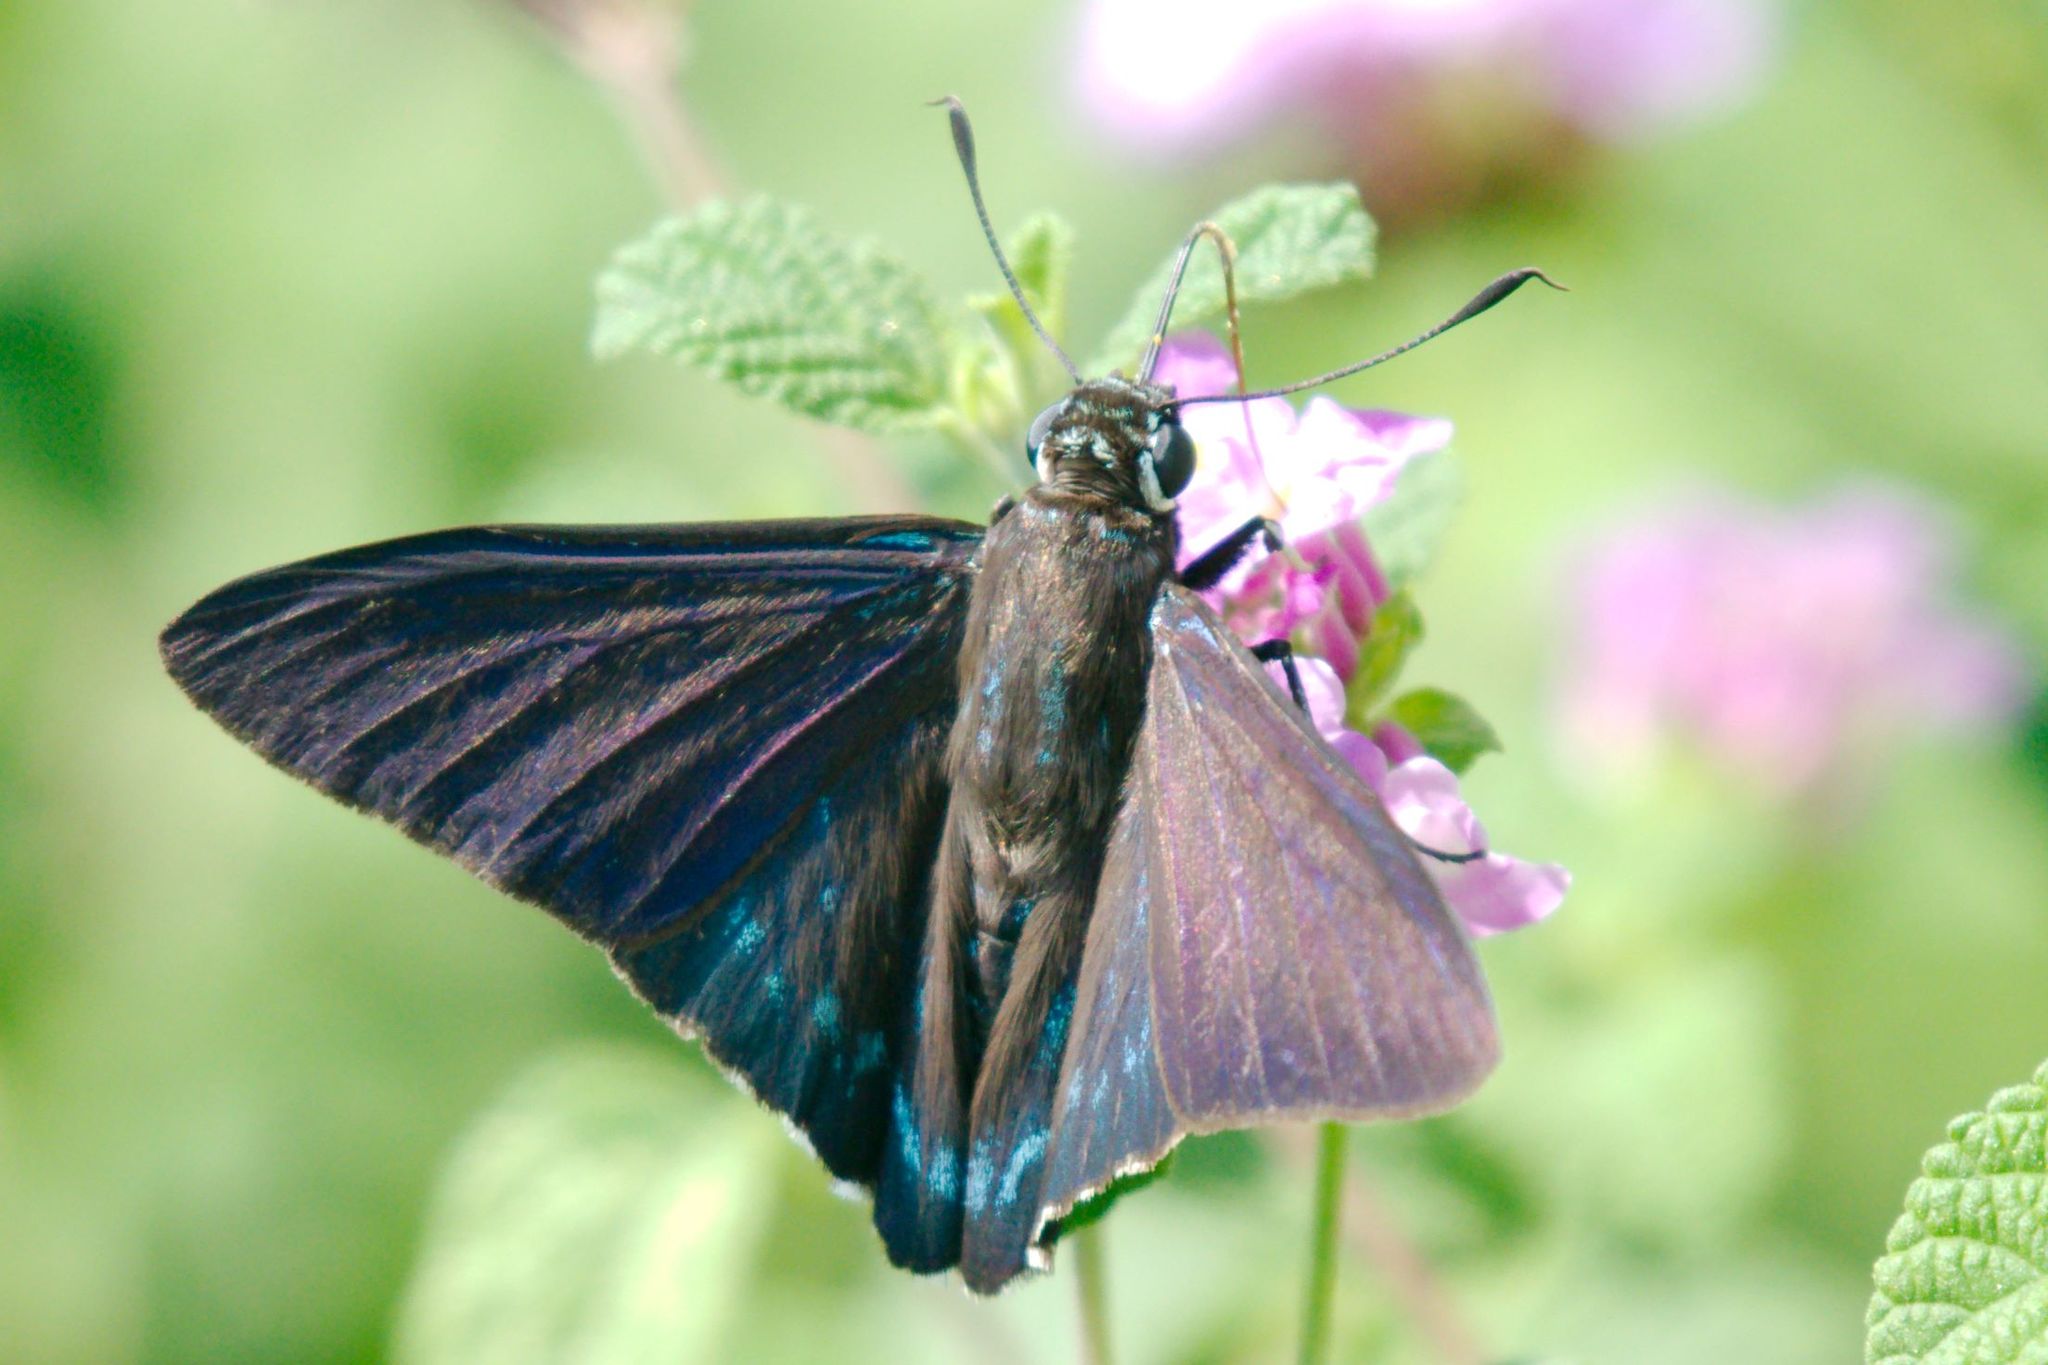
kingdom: Animalia
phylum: Arthropoda
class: Insecta
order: Lepidoptera
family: Hesperiidae
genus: Phocides
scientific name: Phocides pigmalion
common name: Mangrove skipper
